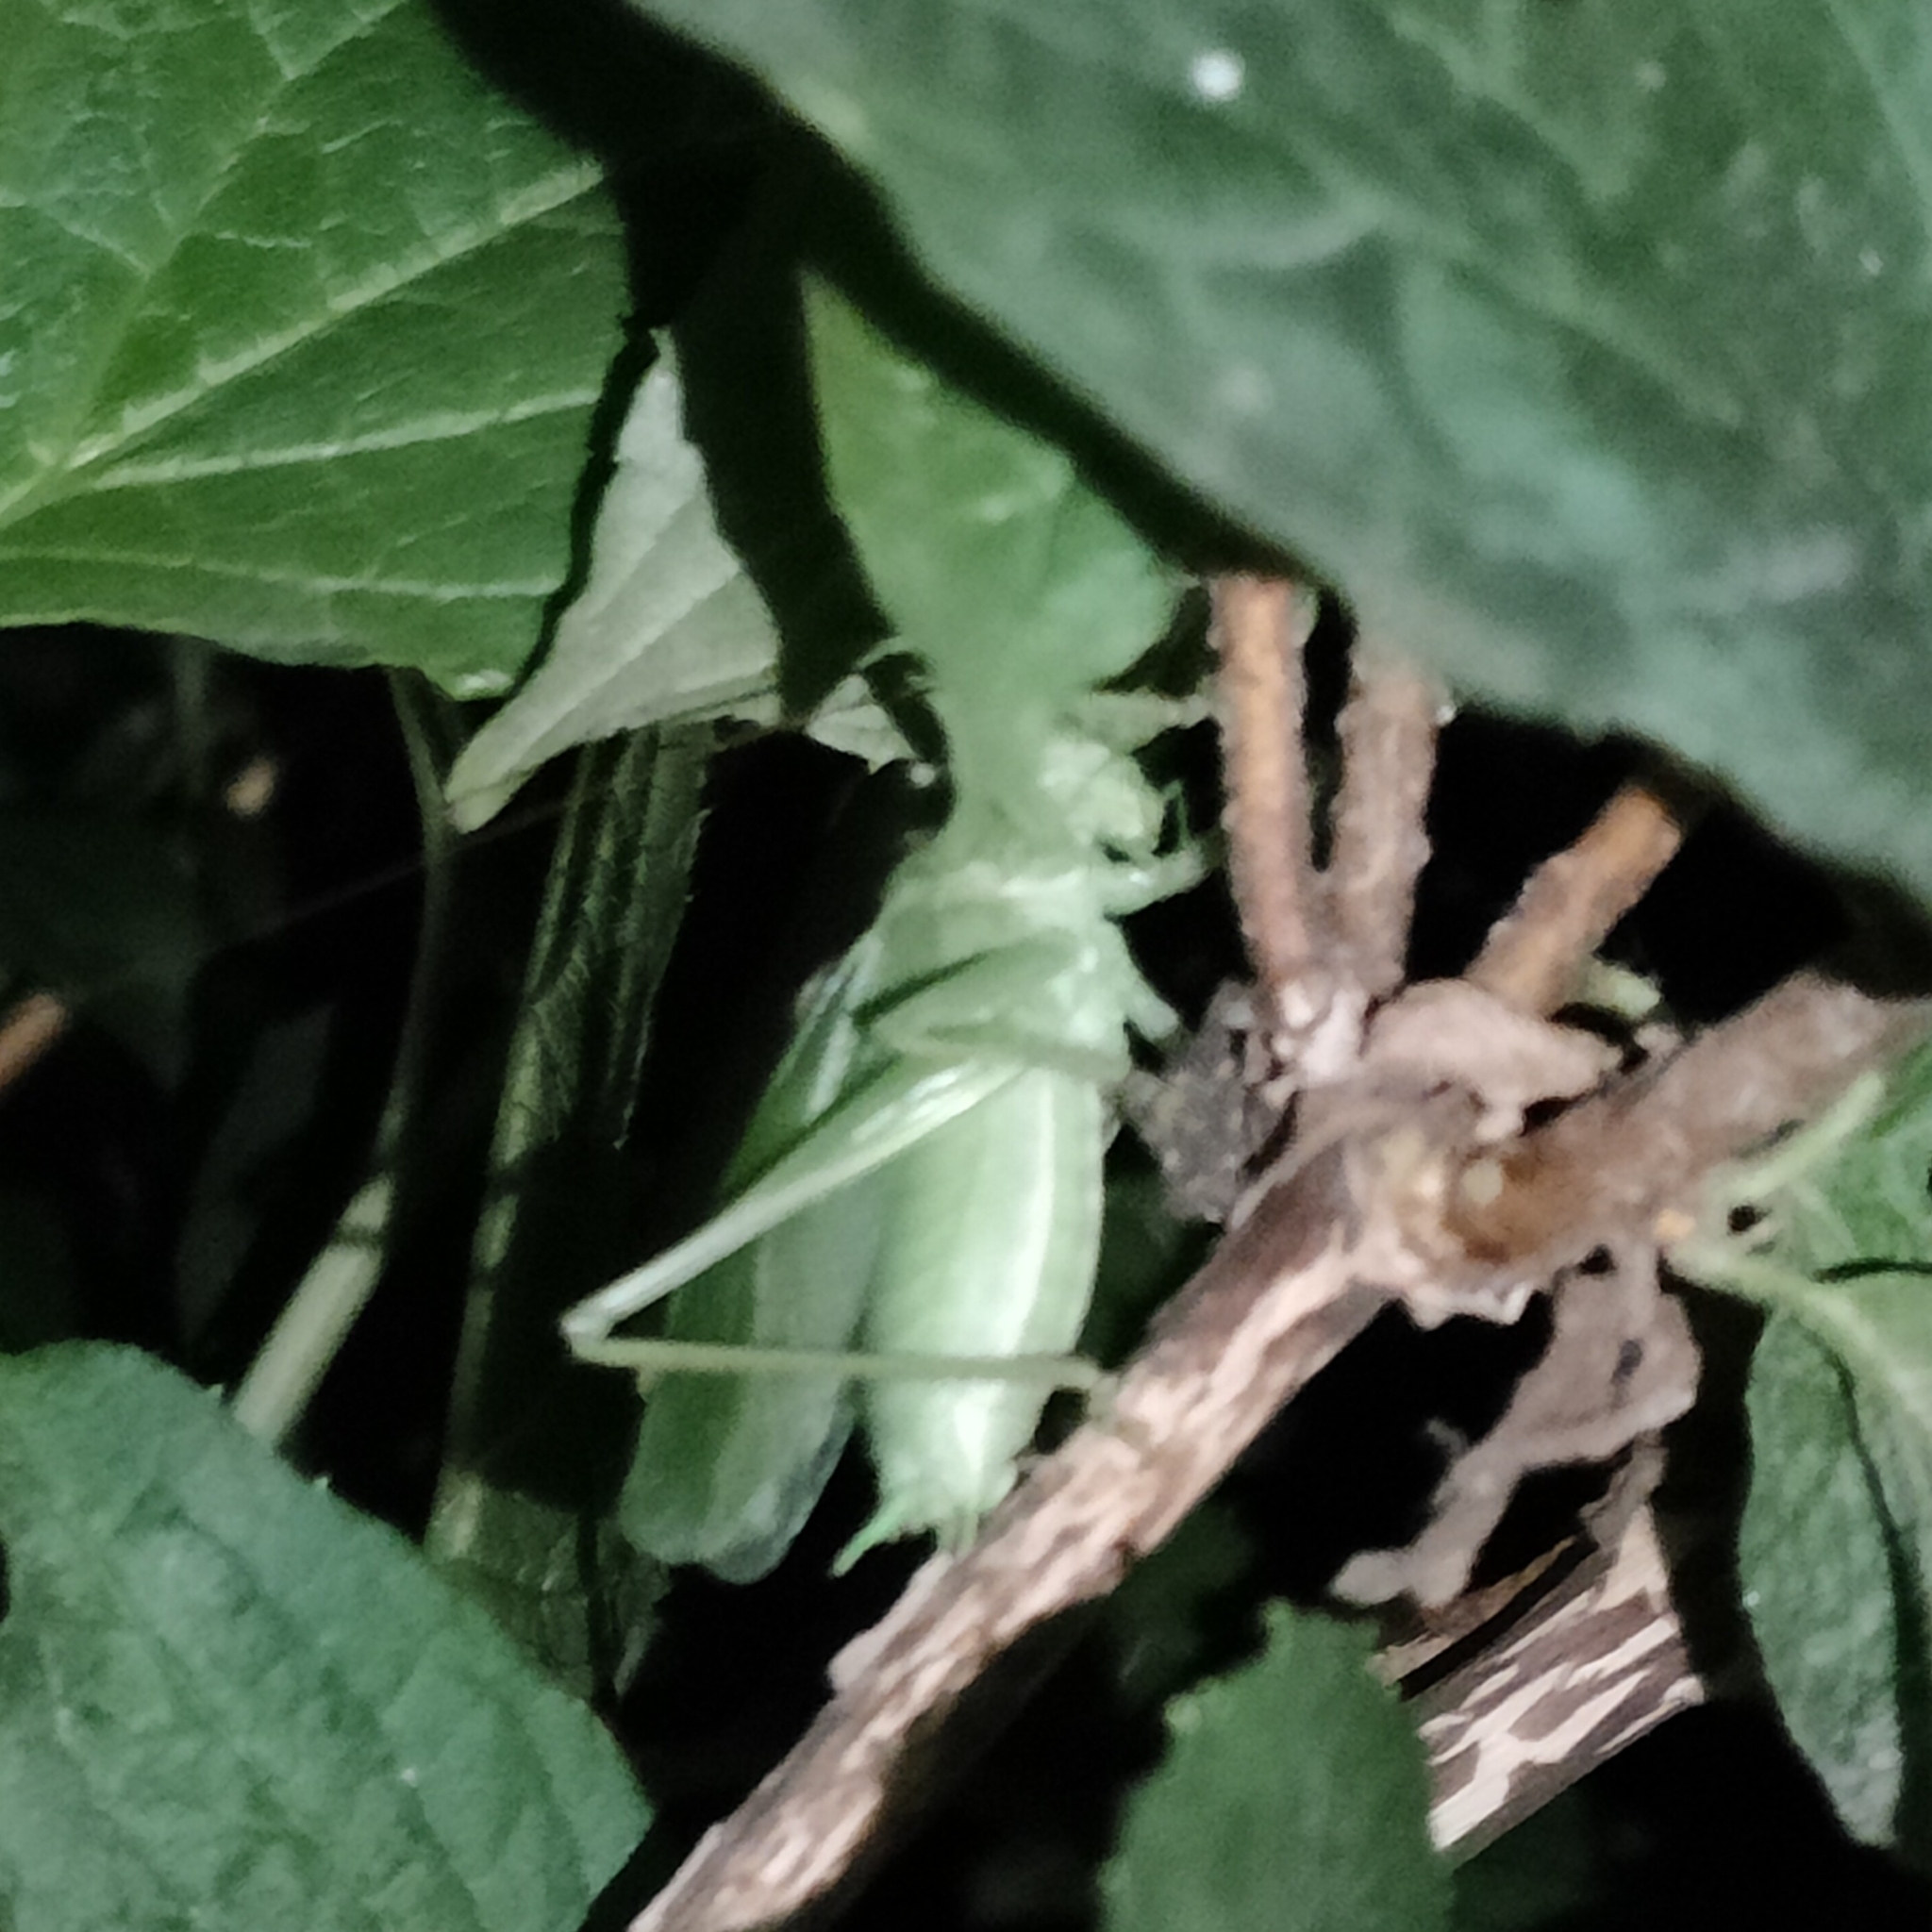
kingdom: Animalia
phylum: Arthropoda
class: Insecta
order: Orthoptera
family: Tettigoniidae
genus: Tettigonia
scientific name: Tettigonia cantans
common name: Upland green bush-cricket
